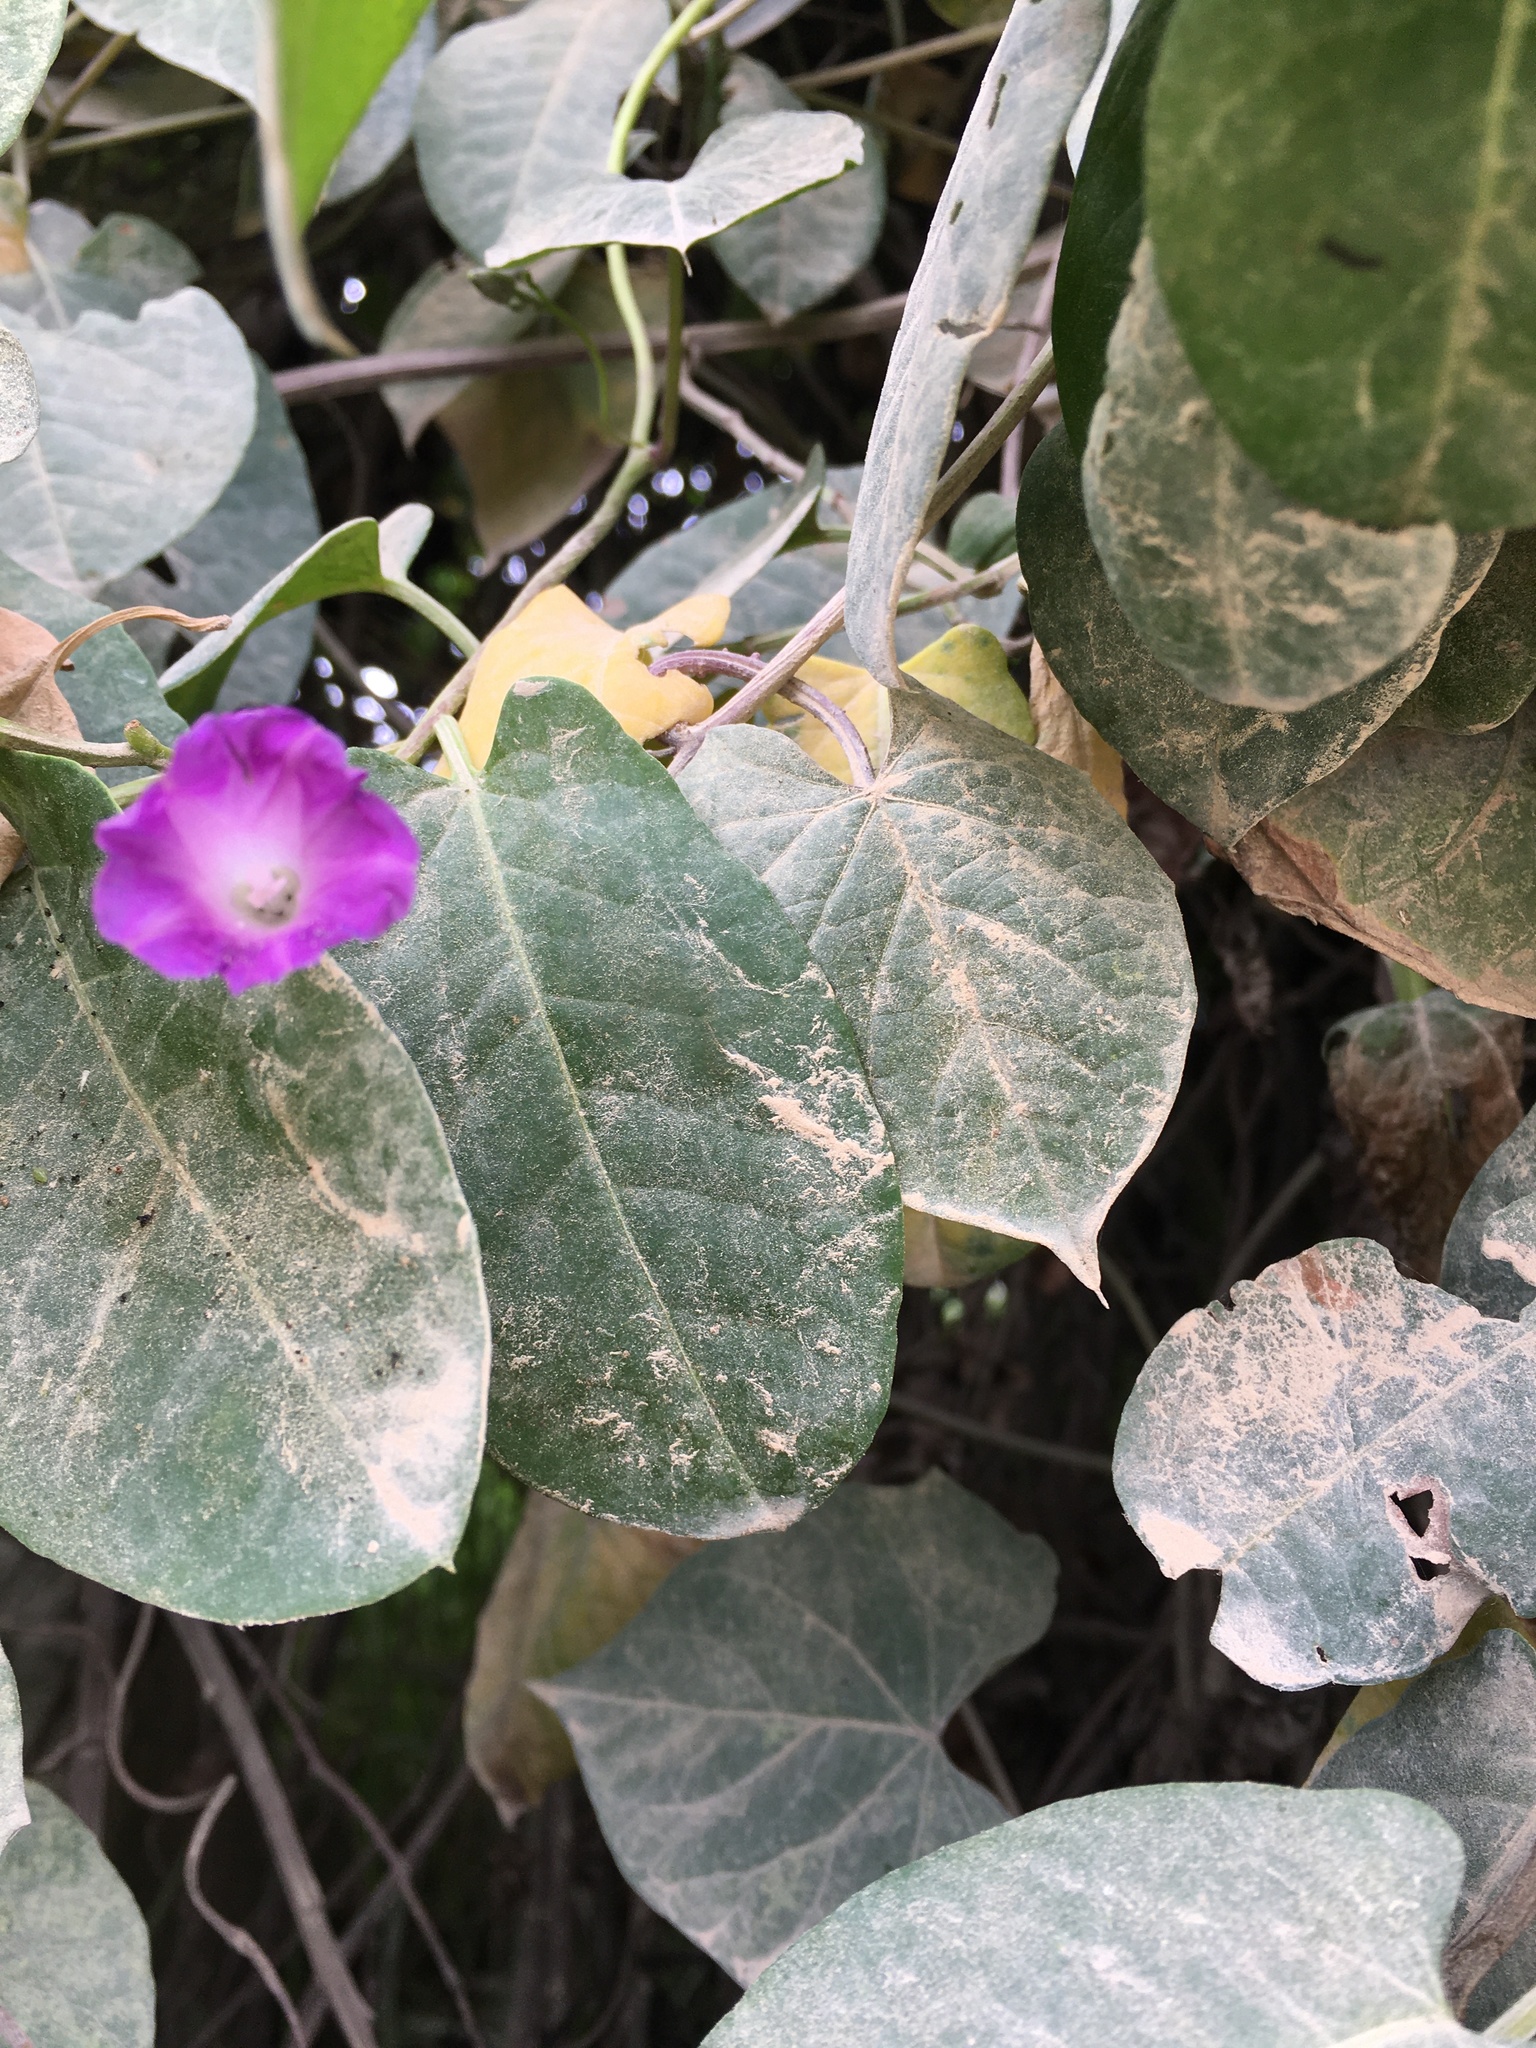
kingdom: Plantae
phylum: Tracheophyta
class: Magnoliopsida
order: Solanales
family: Convolvulaceae
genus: Ipomoea
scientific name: Ipomoea indica
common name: Blue dawnflower
